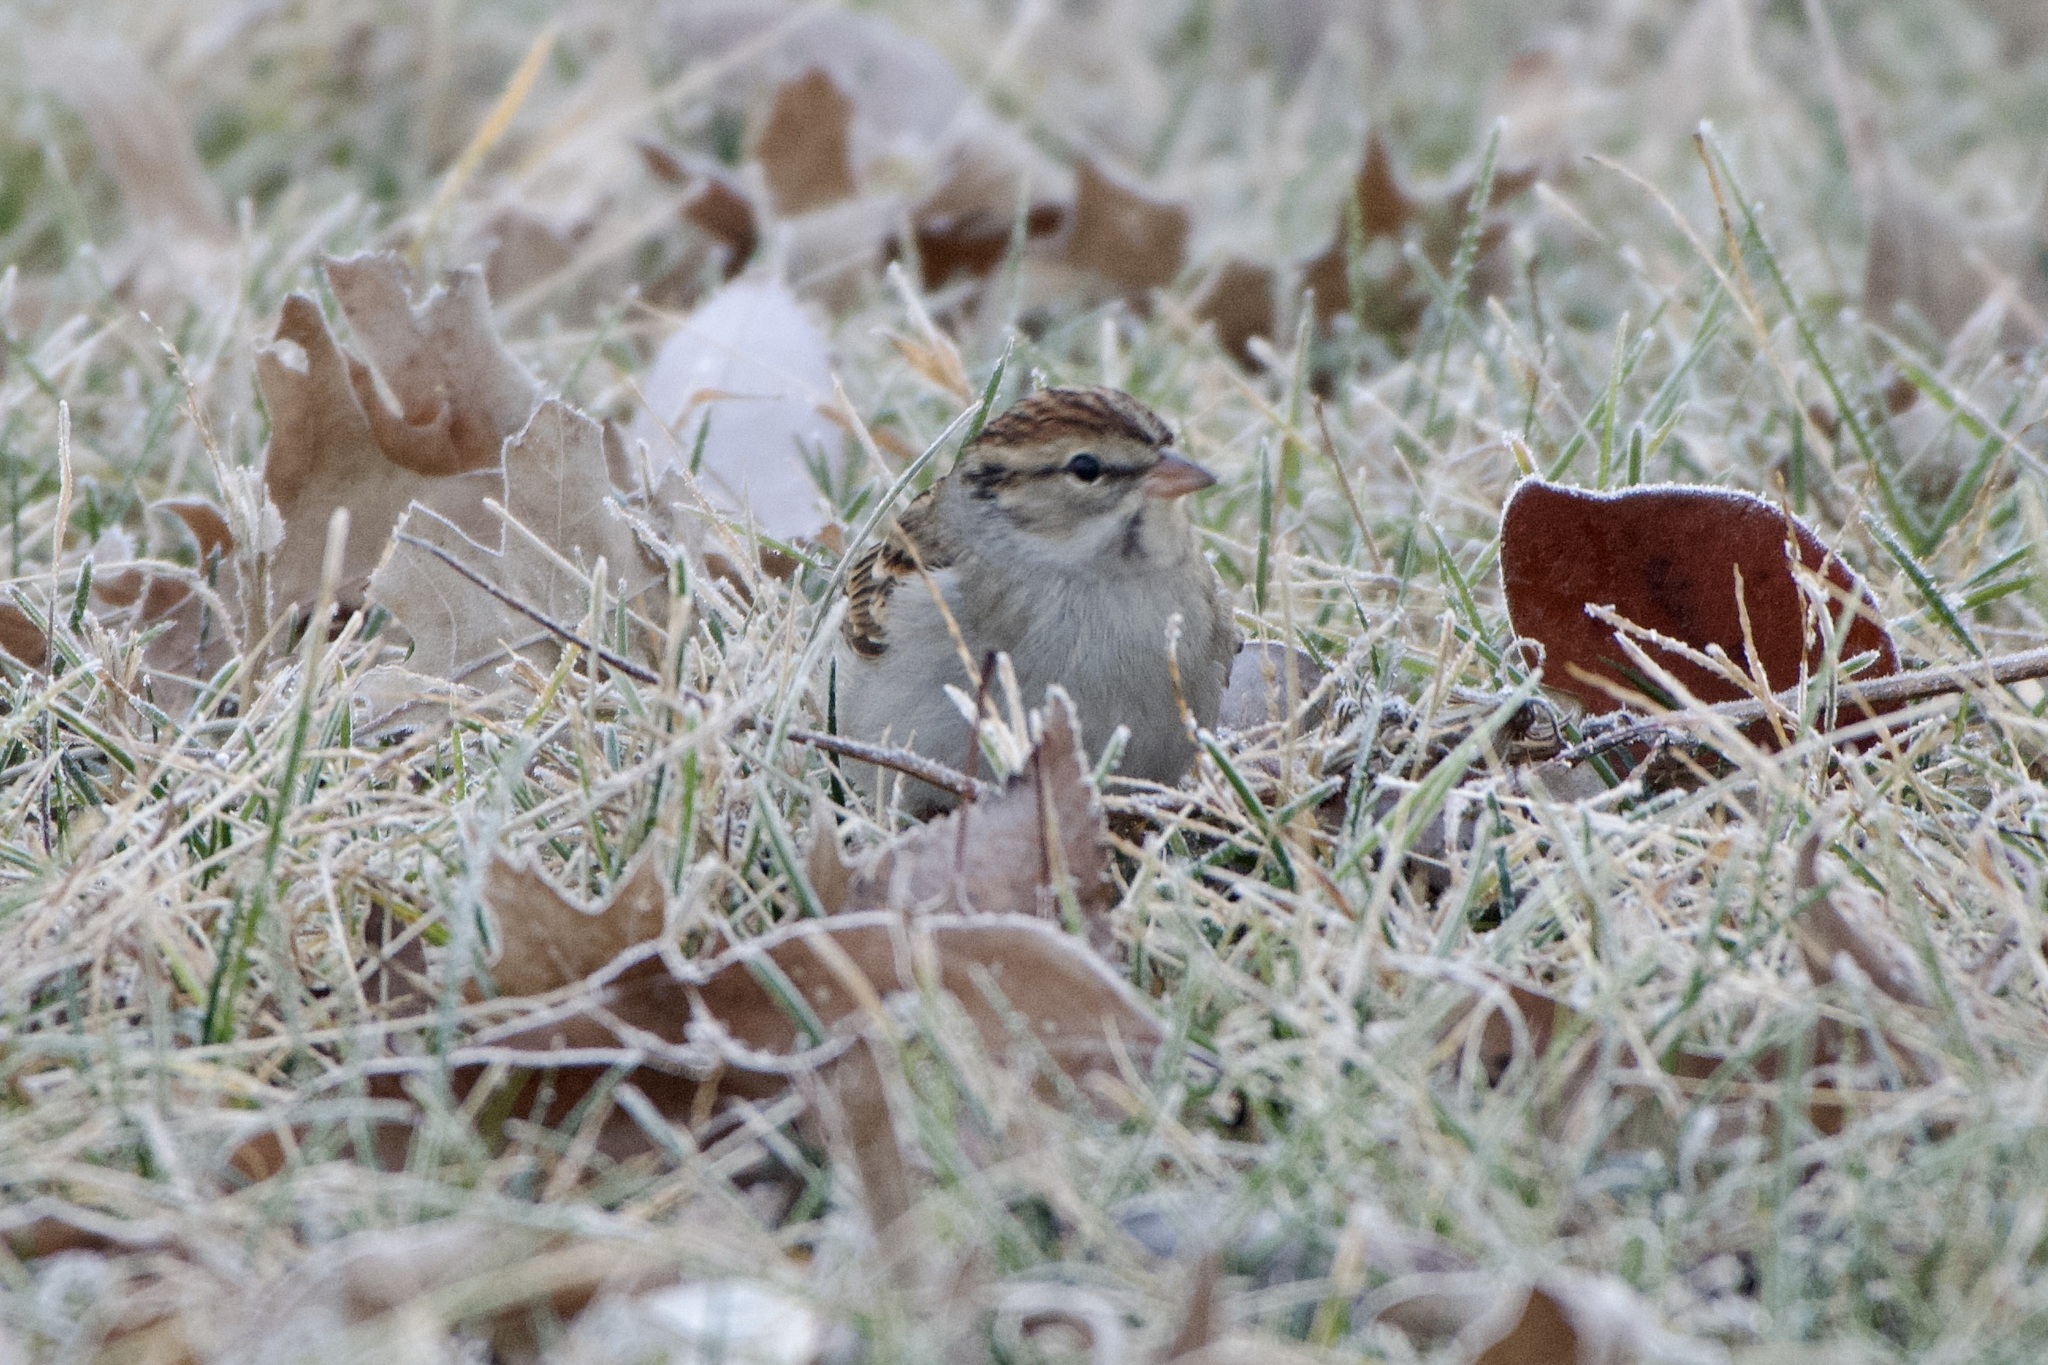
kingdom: Animalia
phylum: Chordata
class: Aves
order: Passeriformes
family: Passerellidae
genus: Spizella
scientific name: Spizella passerina
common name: Chipping sparrow
